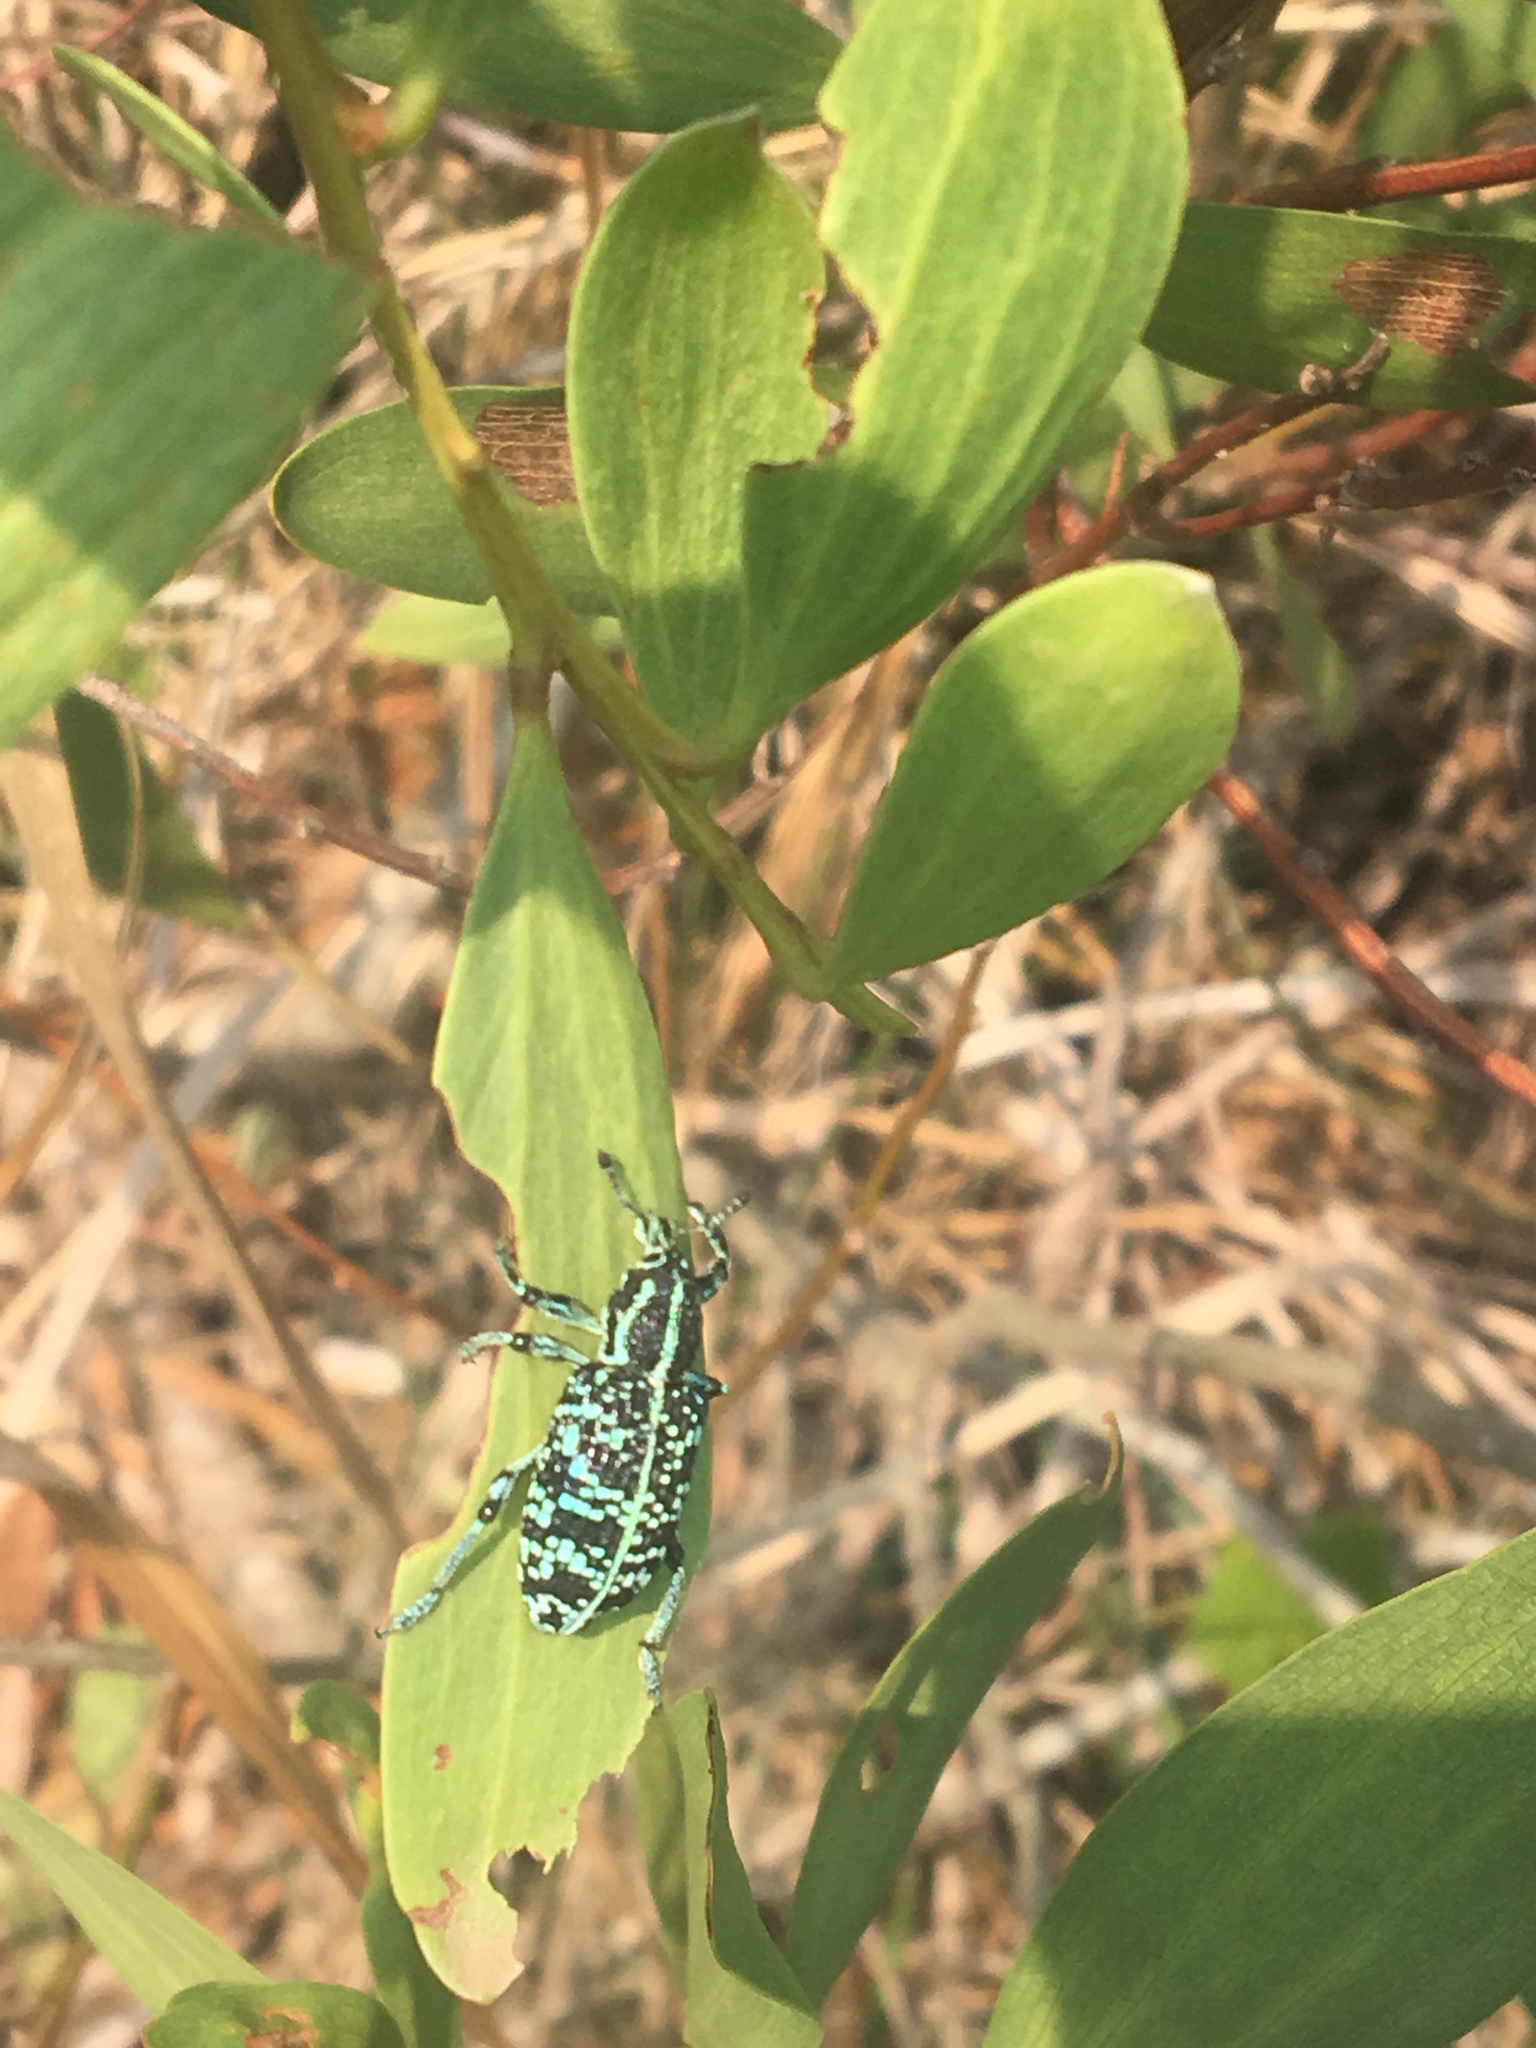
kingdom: Animalia
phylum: Arthropoda
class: Insecta
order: Coleoptera
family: Curculionidae
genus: Chrysolopus
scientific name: Chrysolopus spectabilis
